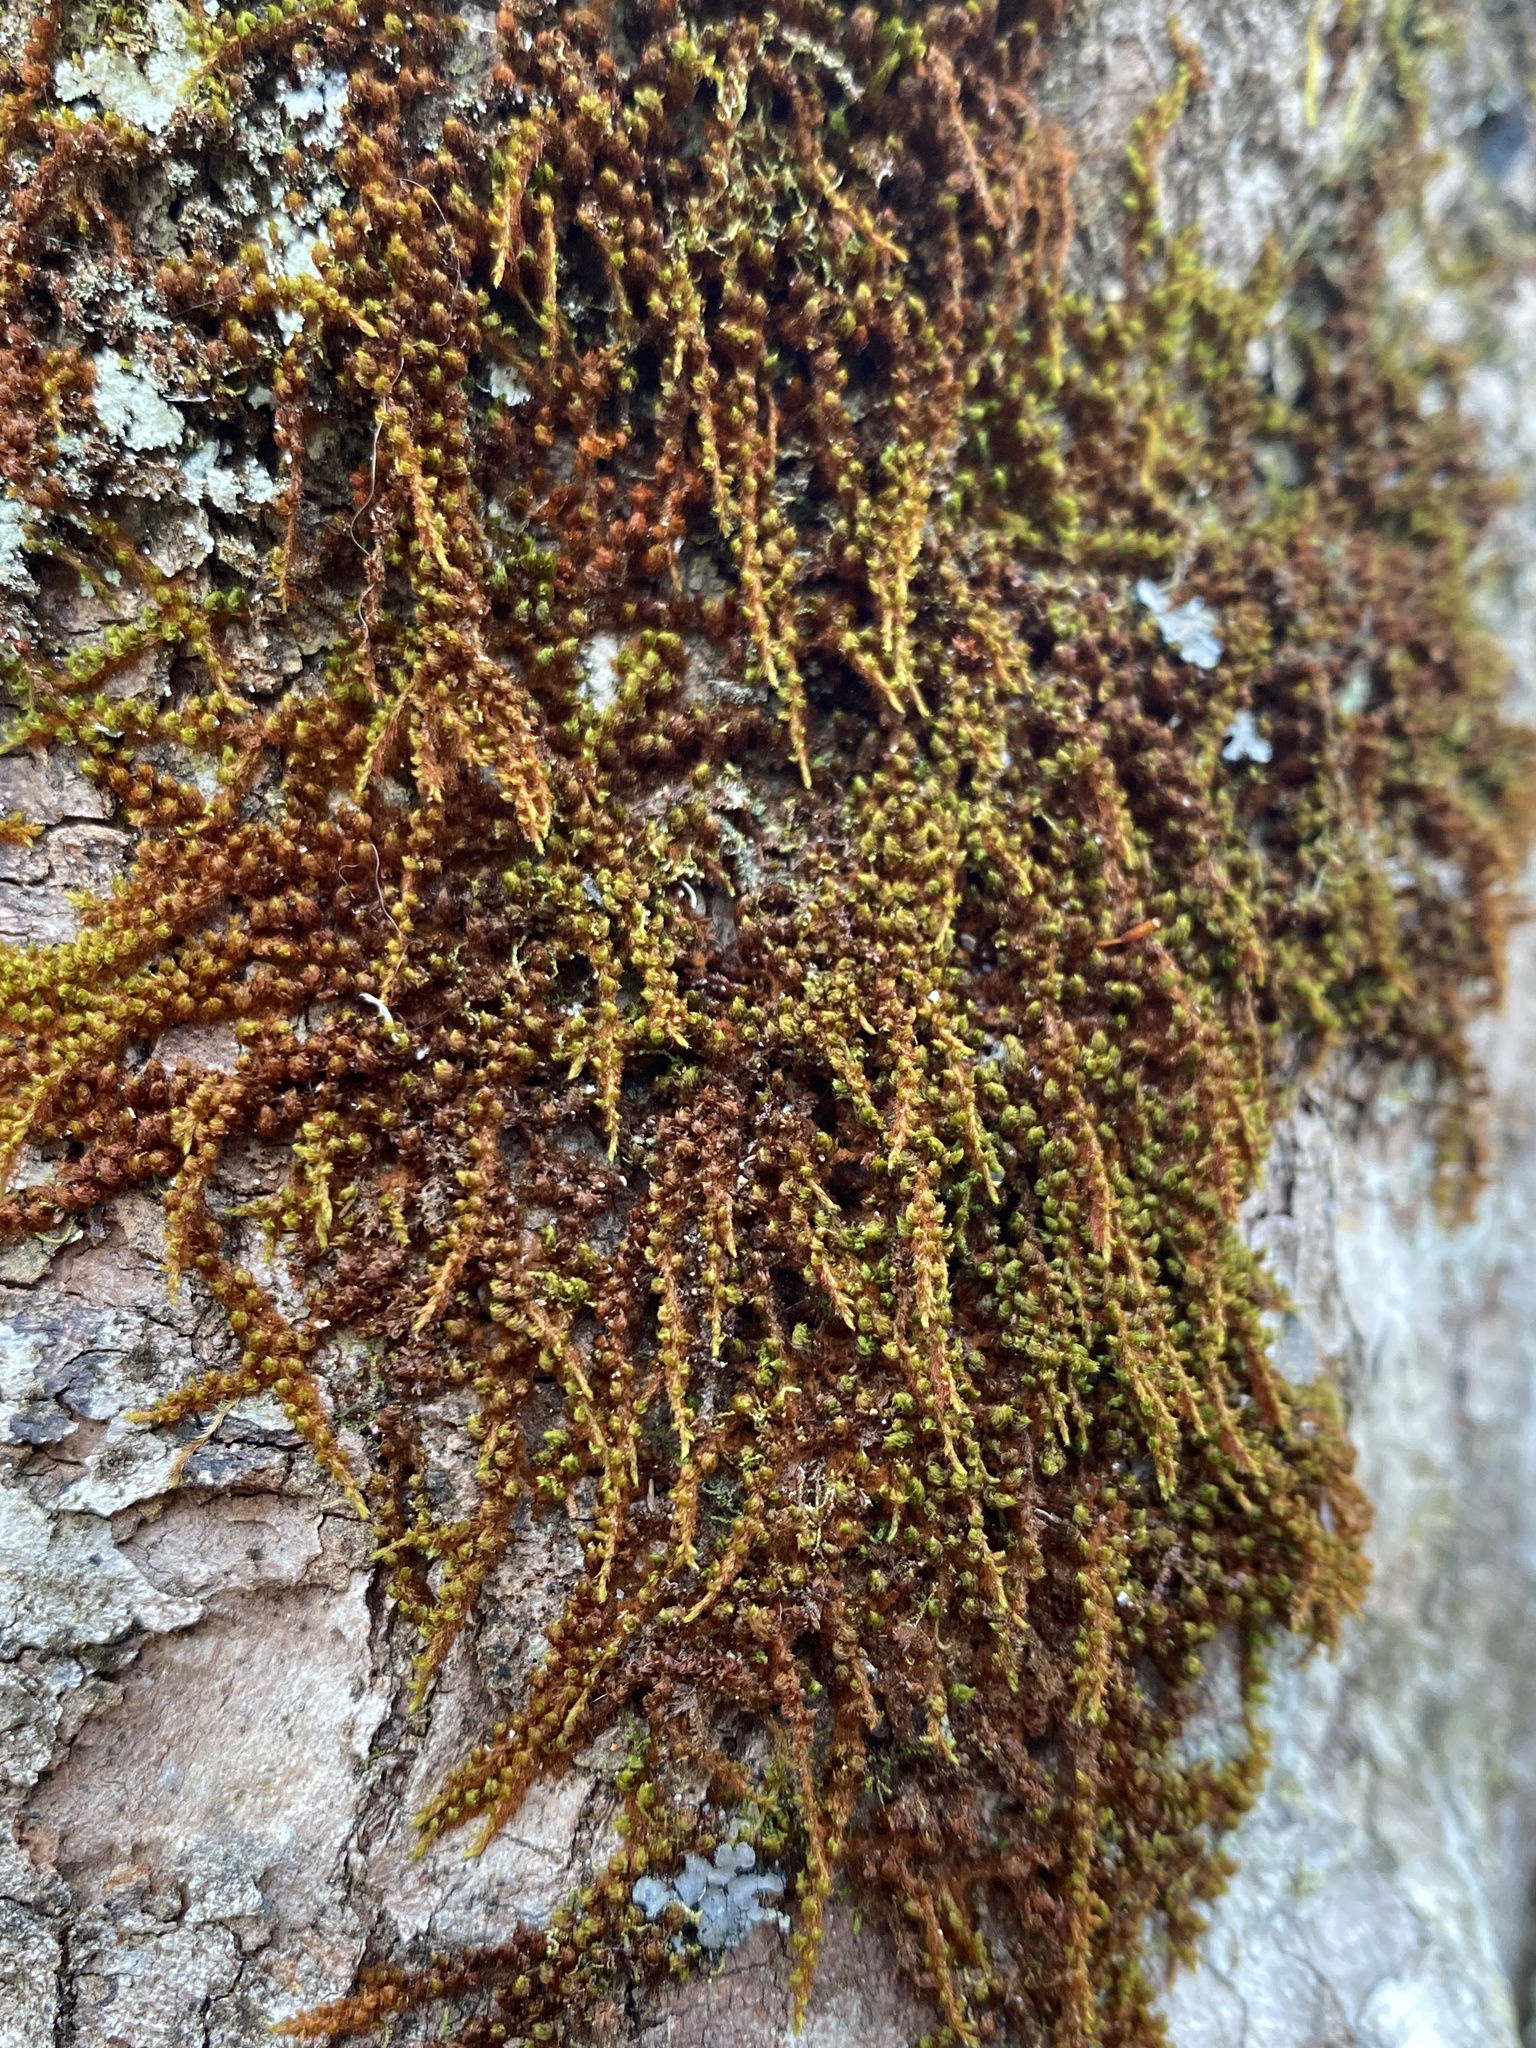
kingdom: Plantae
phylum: Bryophyta
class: Bryopsida
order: Scouleriales
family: Drummondiaceae
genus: Drummondia
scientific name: Drummondia prorepens
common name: Drummond's bark moss
